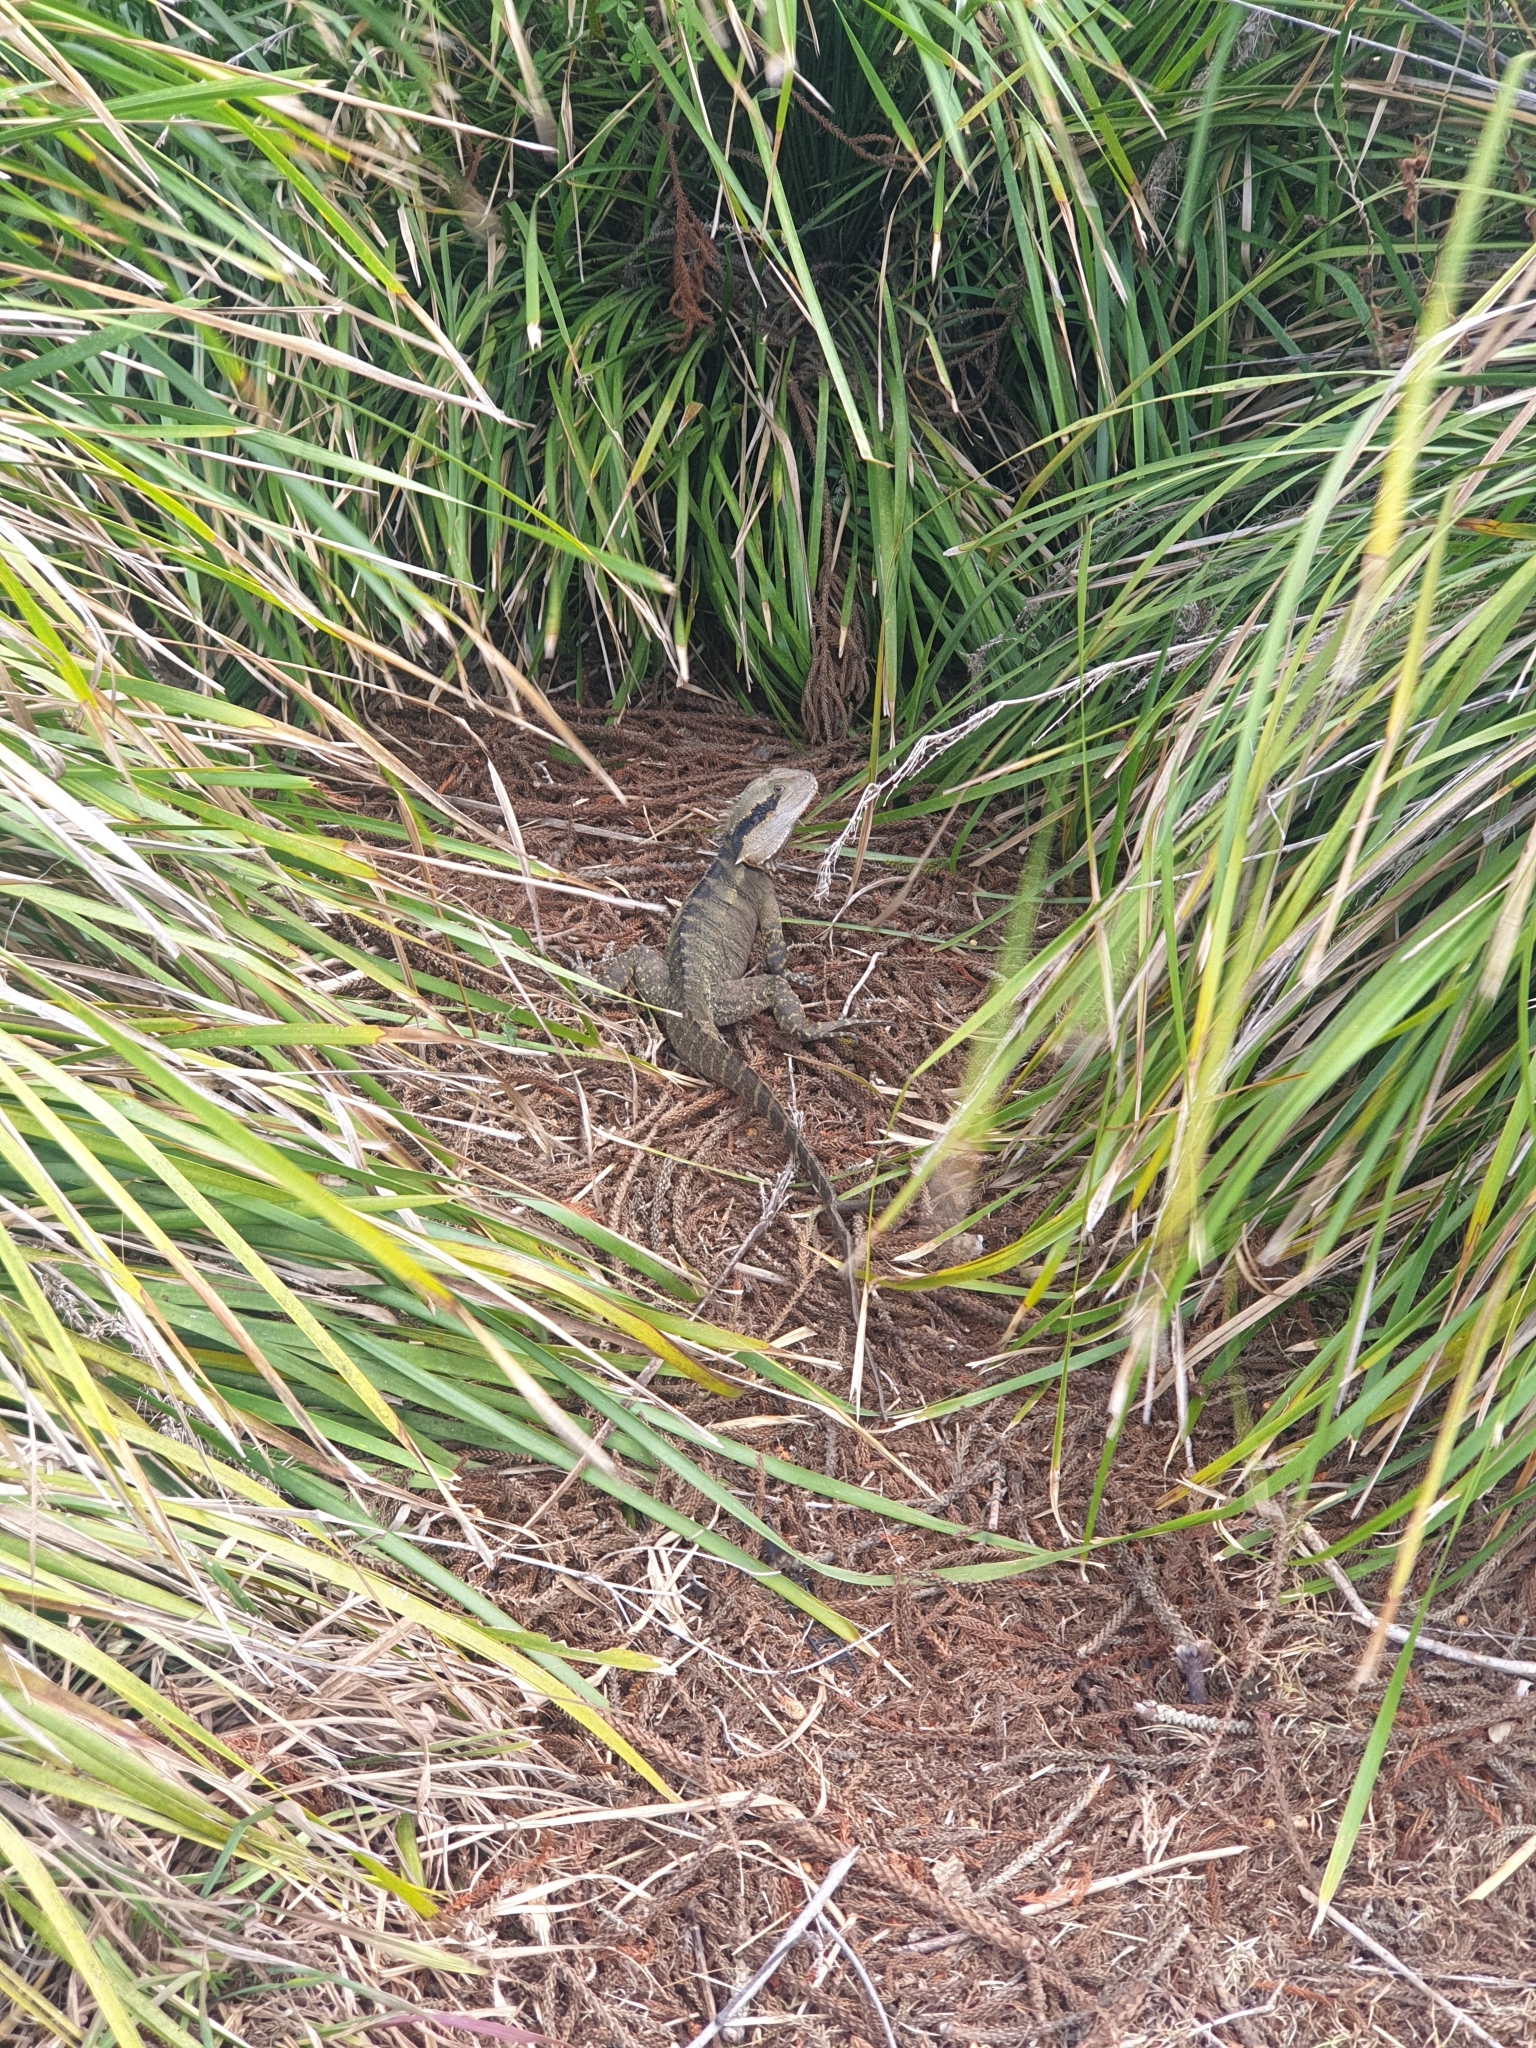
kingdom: Animalia
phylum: Chordata
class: Squamata
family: Agamidae
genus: Intellagama
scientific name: Intellagama lesueurii
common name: Eastern water dragon
